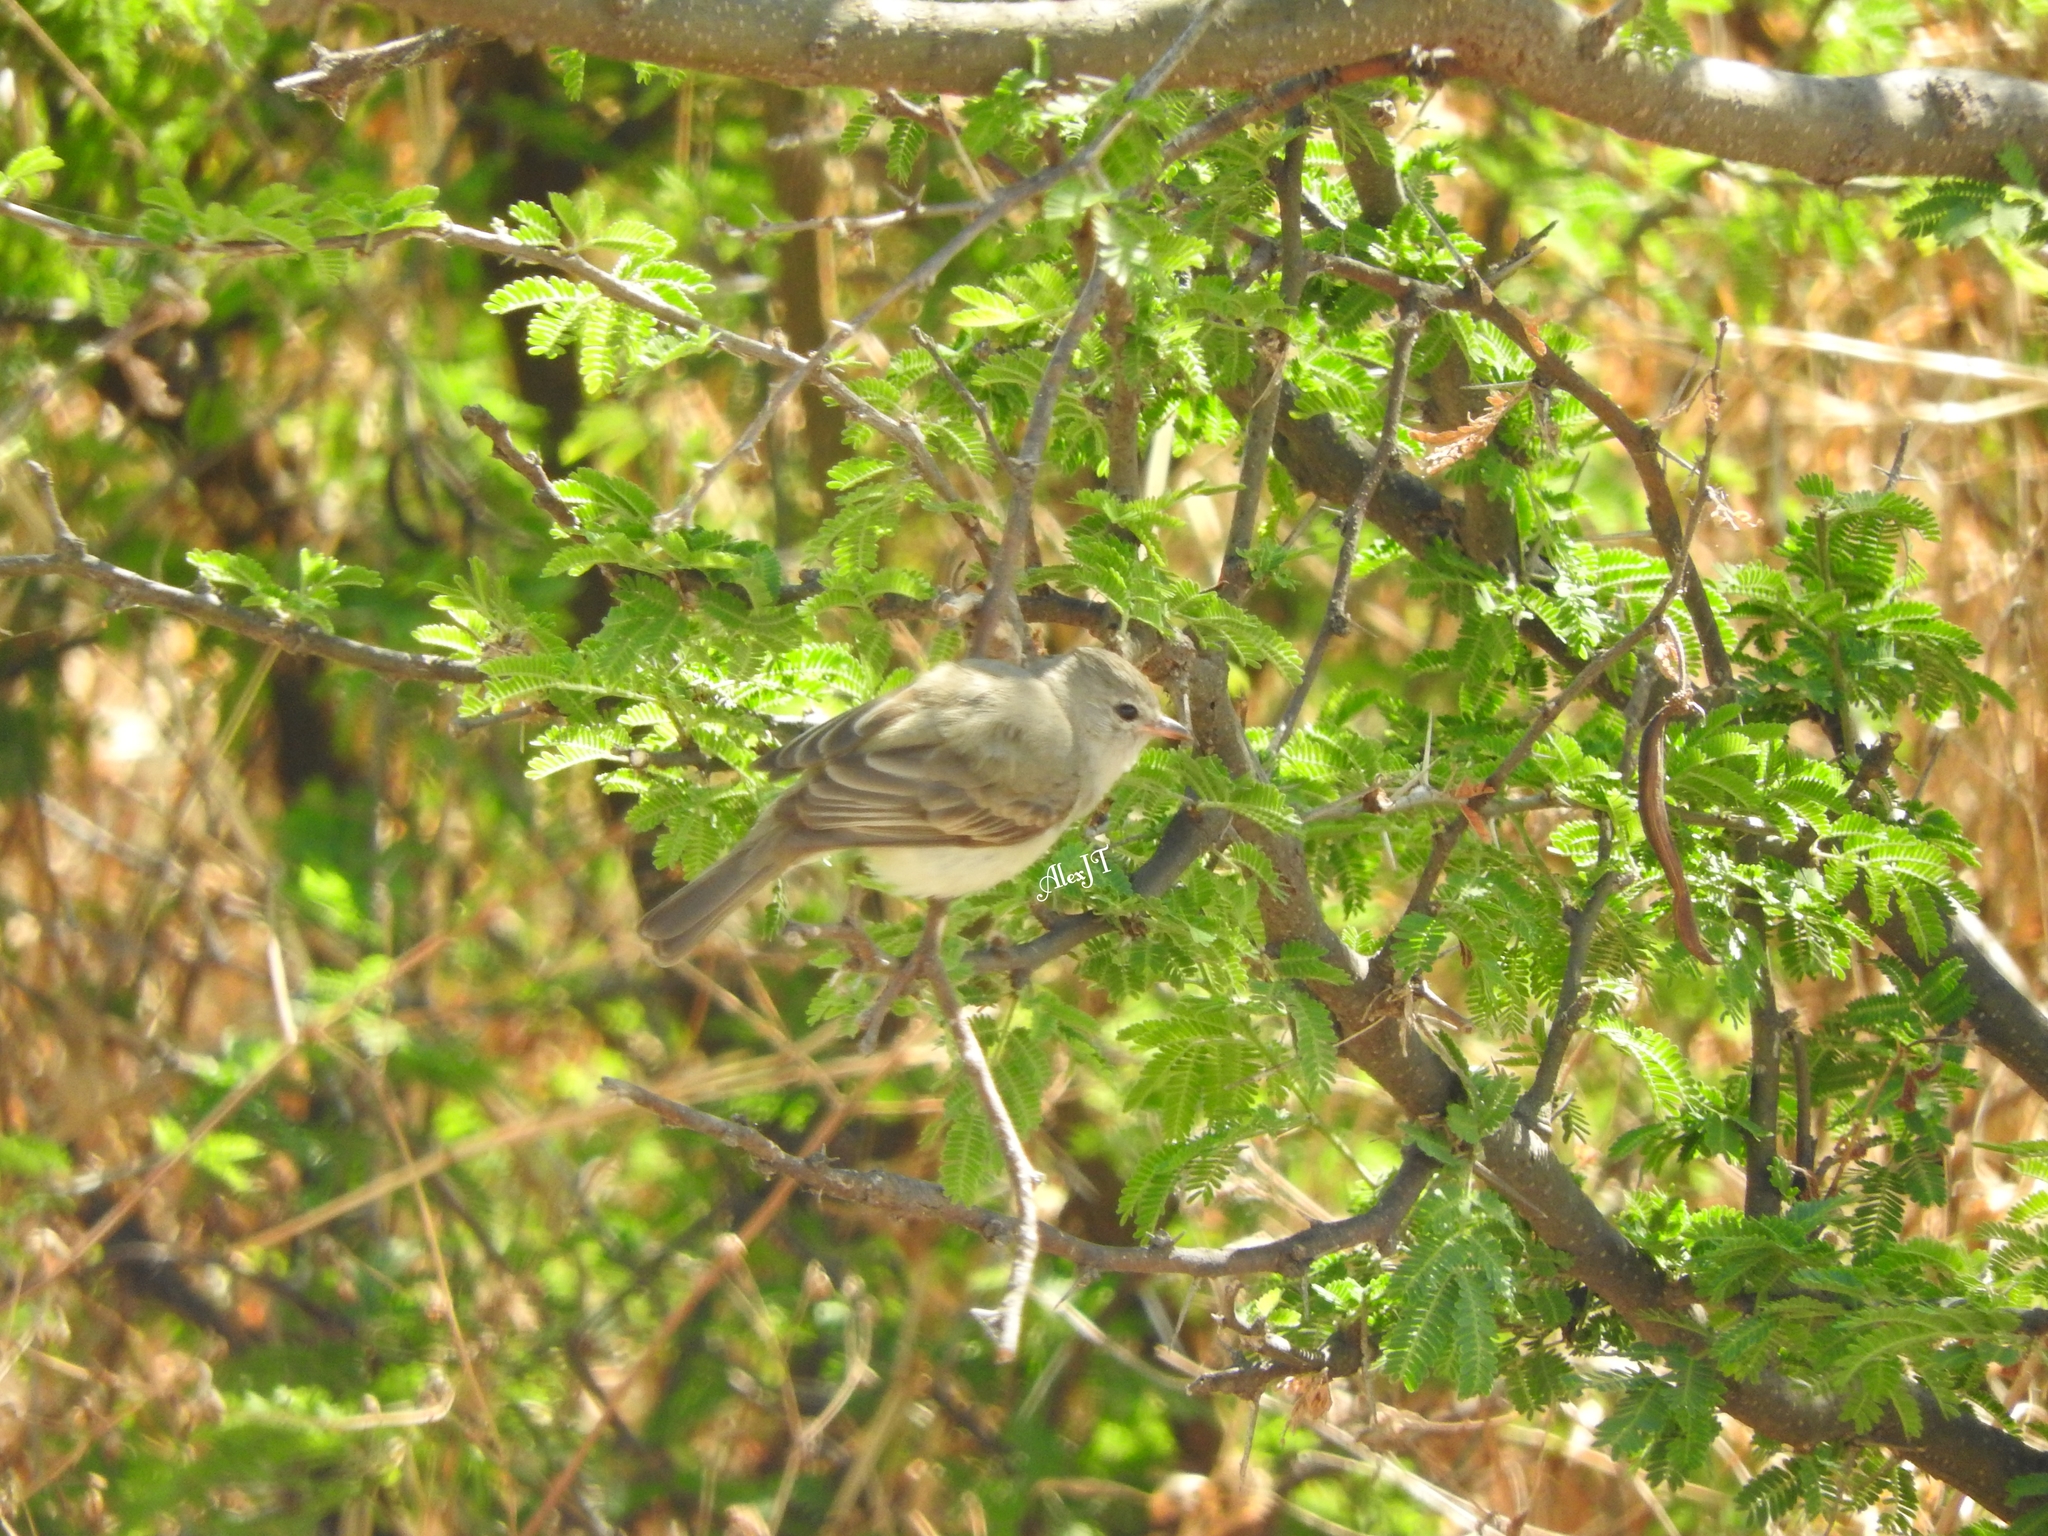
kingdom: Animalia
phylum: Chordata
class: Aves
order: Passeriformes
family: Tyrannidae
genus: Camptostoma
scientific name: Camptostoma imberbe
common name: Northern beardless-tyrannulet
